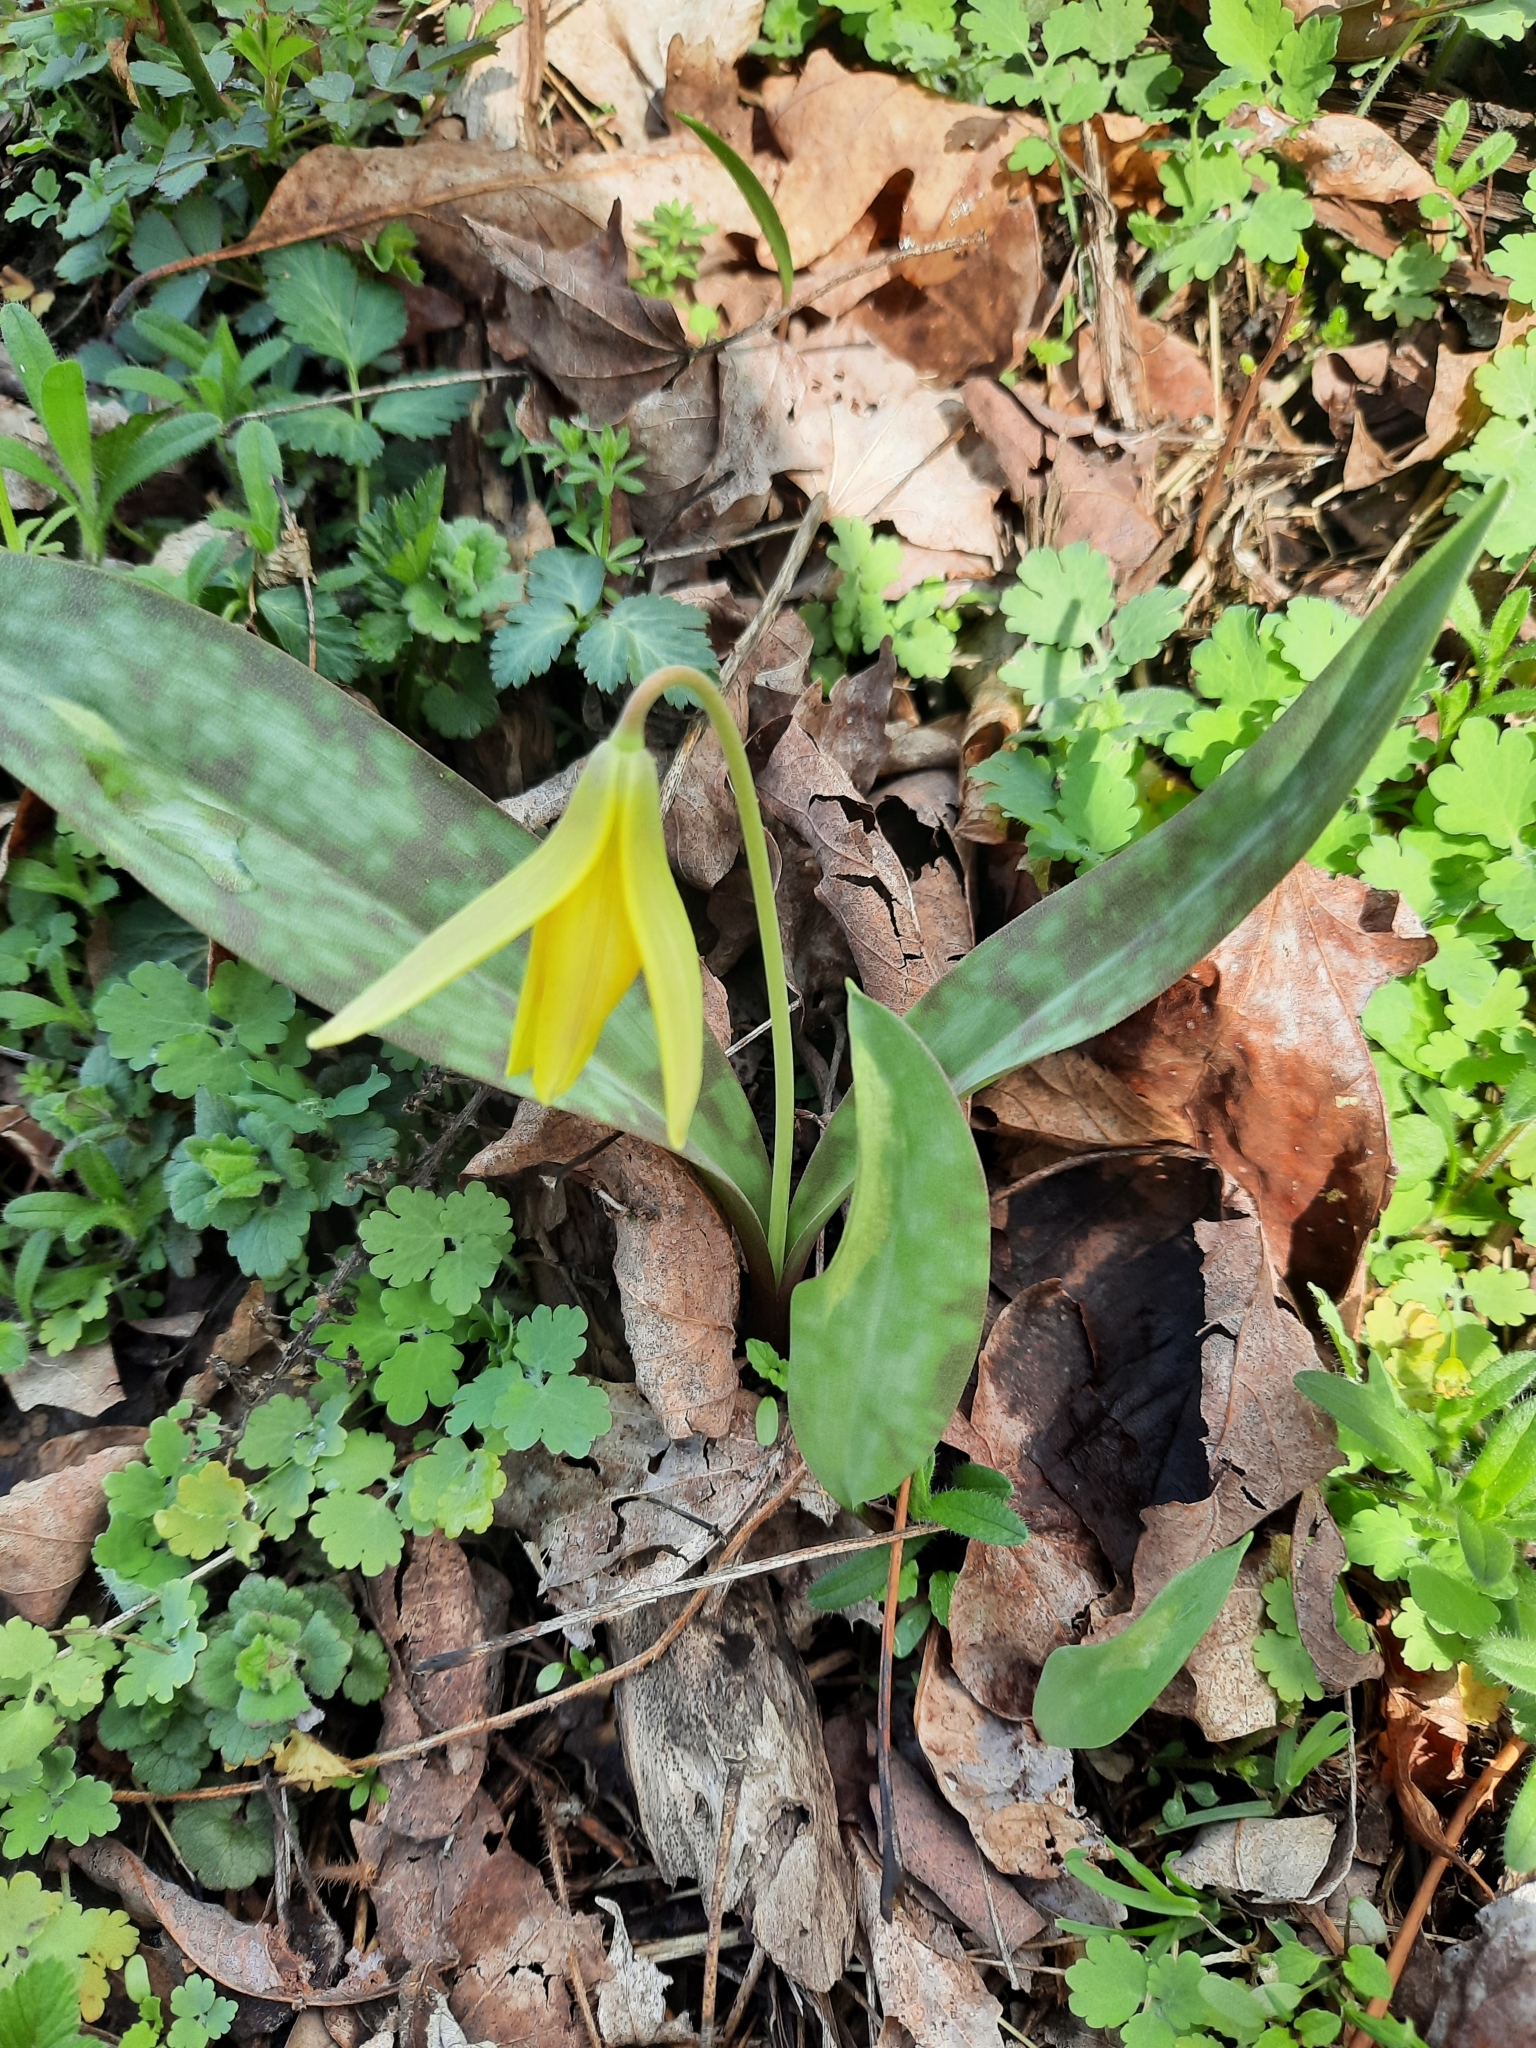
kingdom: Plantae
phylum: Tracheophyta
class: Liliopsida
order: Liliales
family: Liliaceae
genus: Erythronium
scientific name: Erythronium americanum
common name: Yellow adder's-tongue
